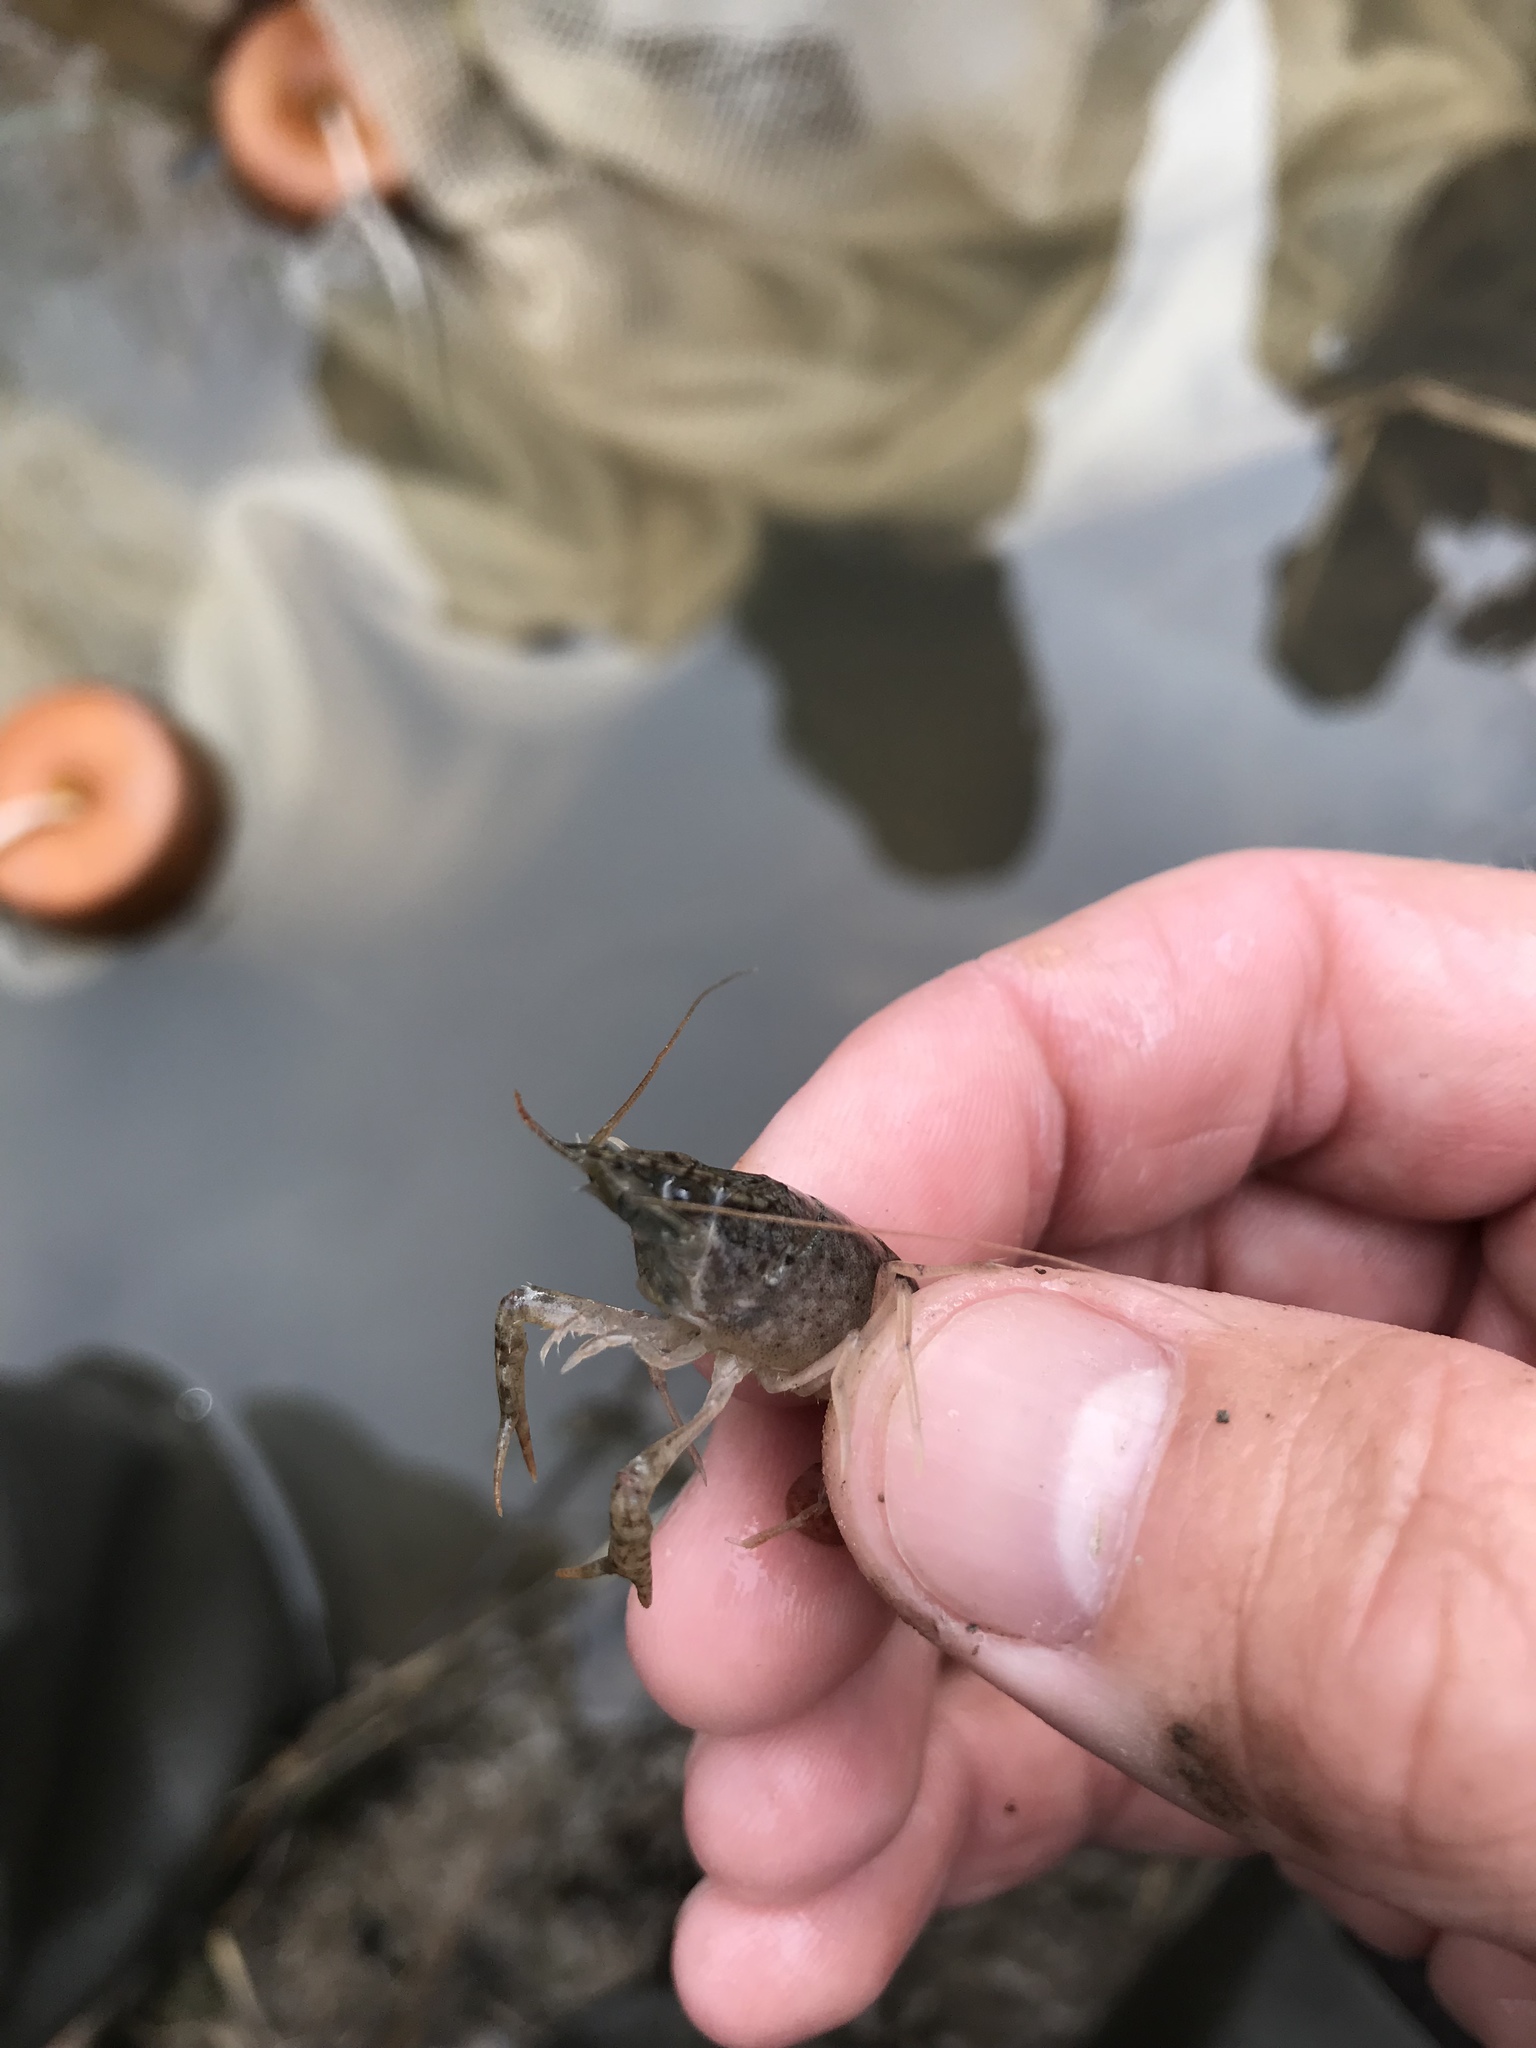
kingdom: Animalia
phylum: Arthropoda
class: Malacostraca
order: Decapoda
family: Cambaridae
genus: Procambarus
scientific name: Procambarus clarkii
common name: Red swamp crayfish
